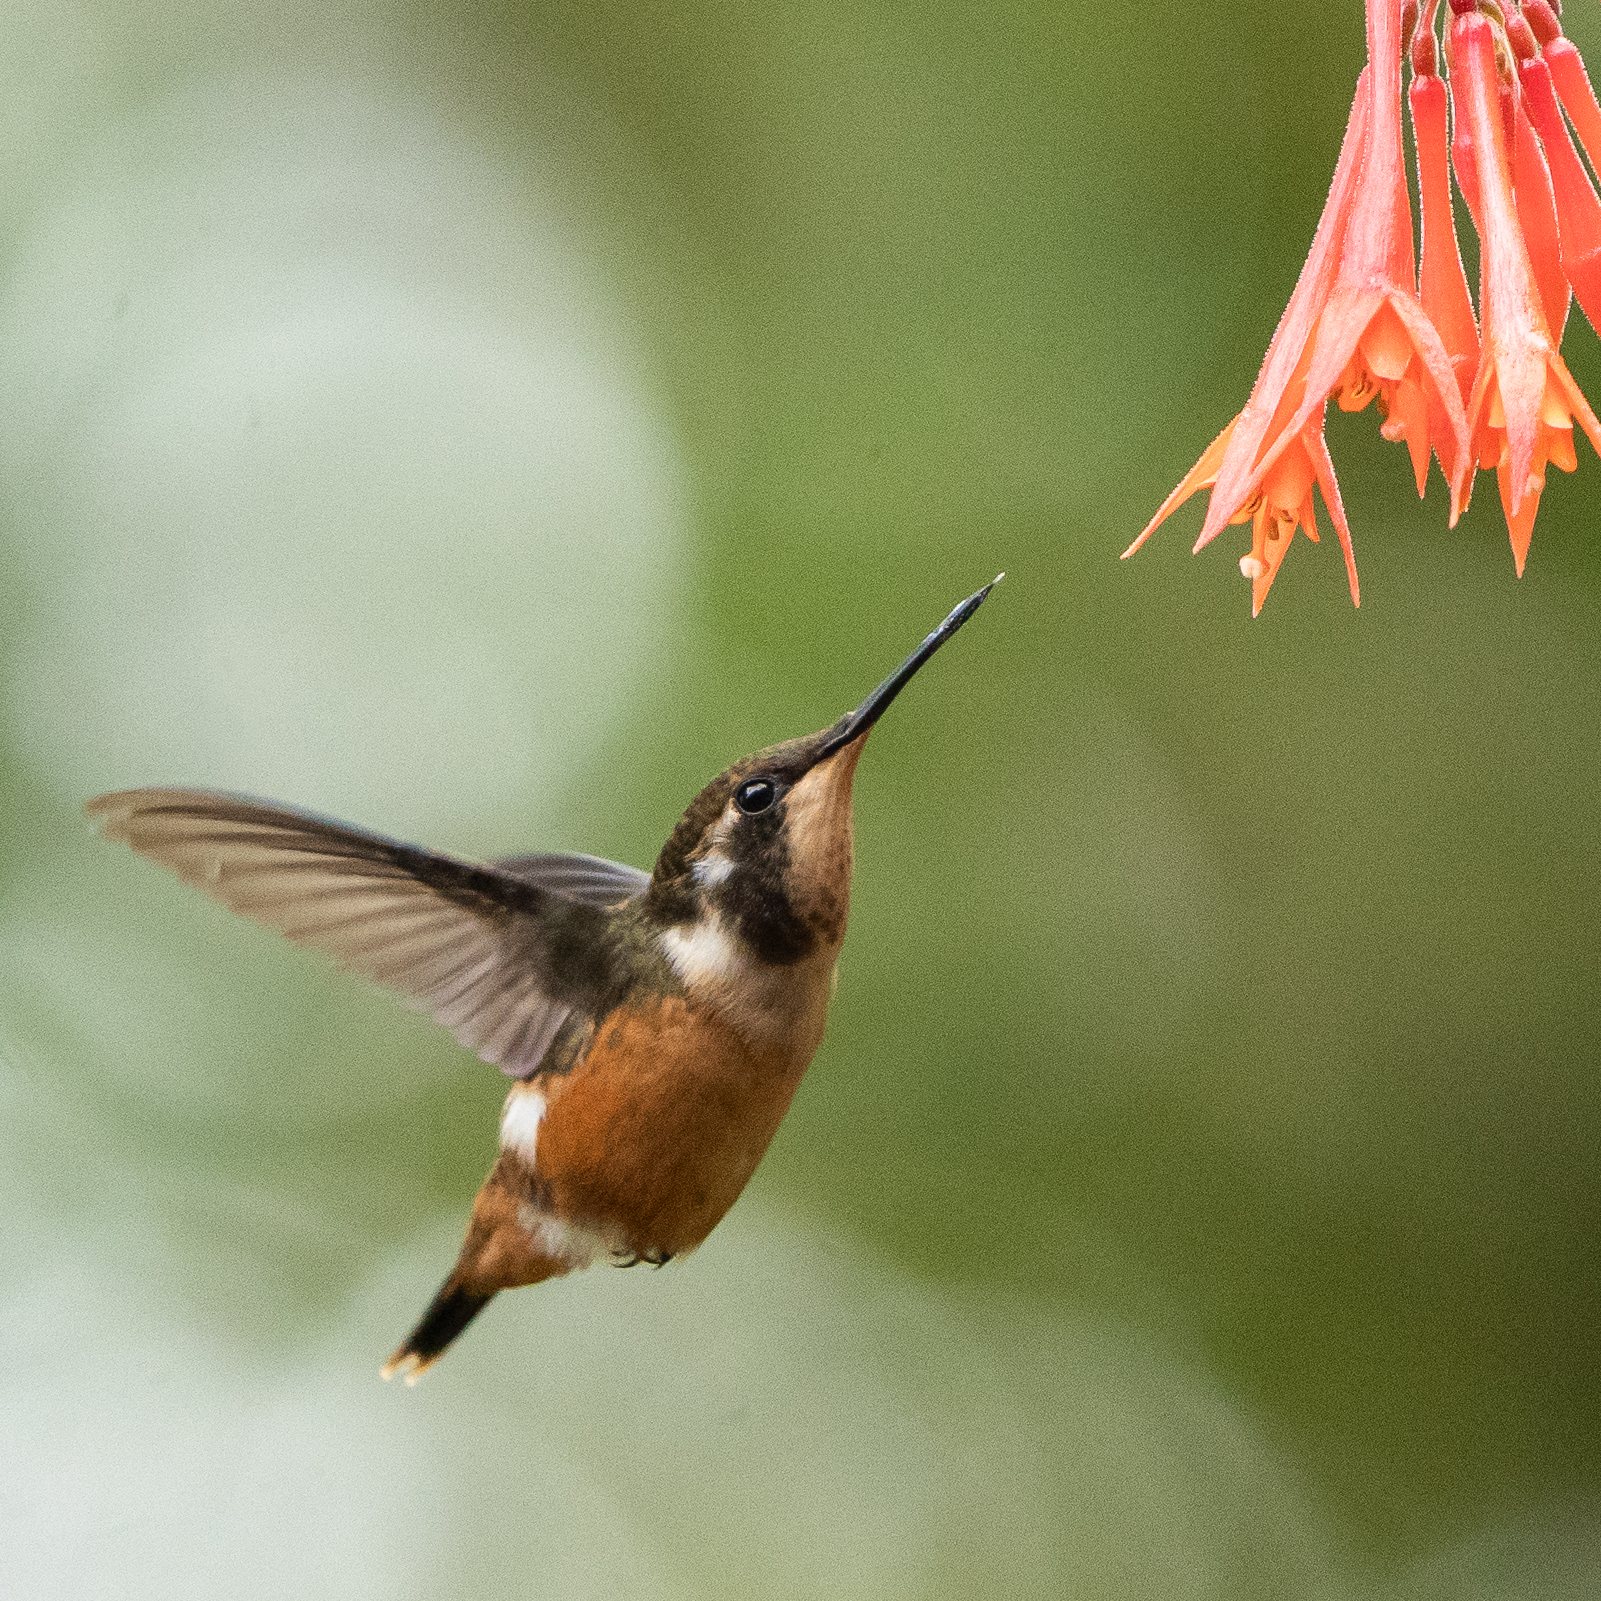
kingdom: Animalia
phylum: Chordata
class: Aves
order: Apodiformes
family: Trochilidae
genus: Calliphlox
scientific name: Calliphlox mitchellii
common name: Purple-throated woodstar
